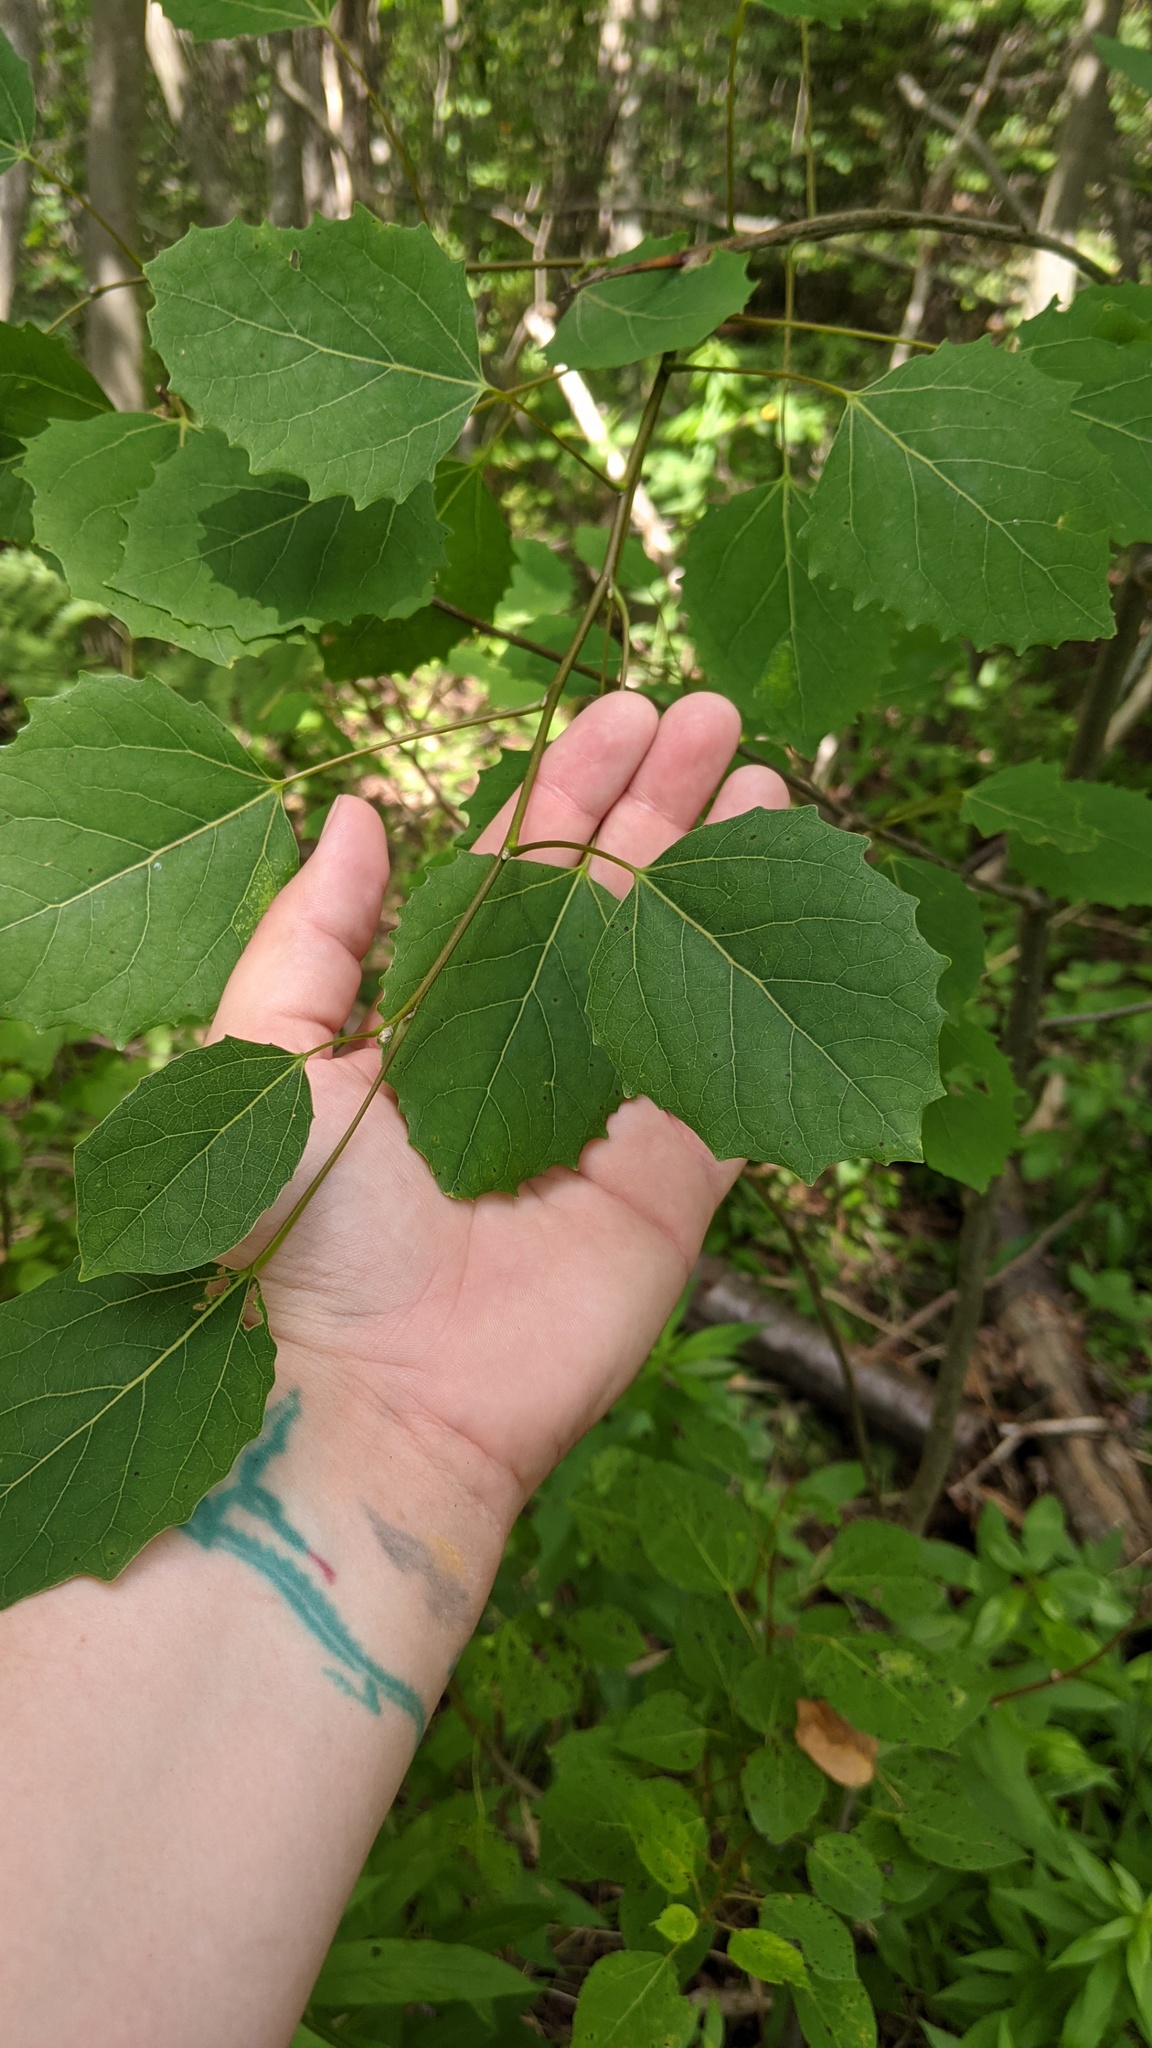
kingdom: Plantae
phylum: Tracheophyta
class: Magnoliopsida
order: Malpighiales
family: Salicaceae
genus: Populus
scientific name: Populus grandidentata
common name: Bigtooth aspen
